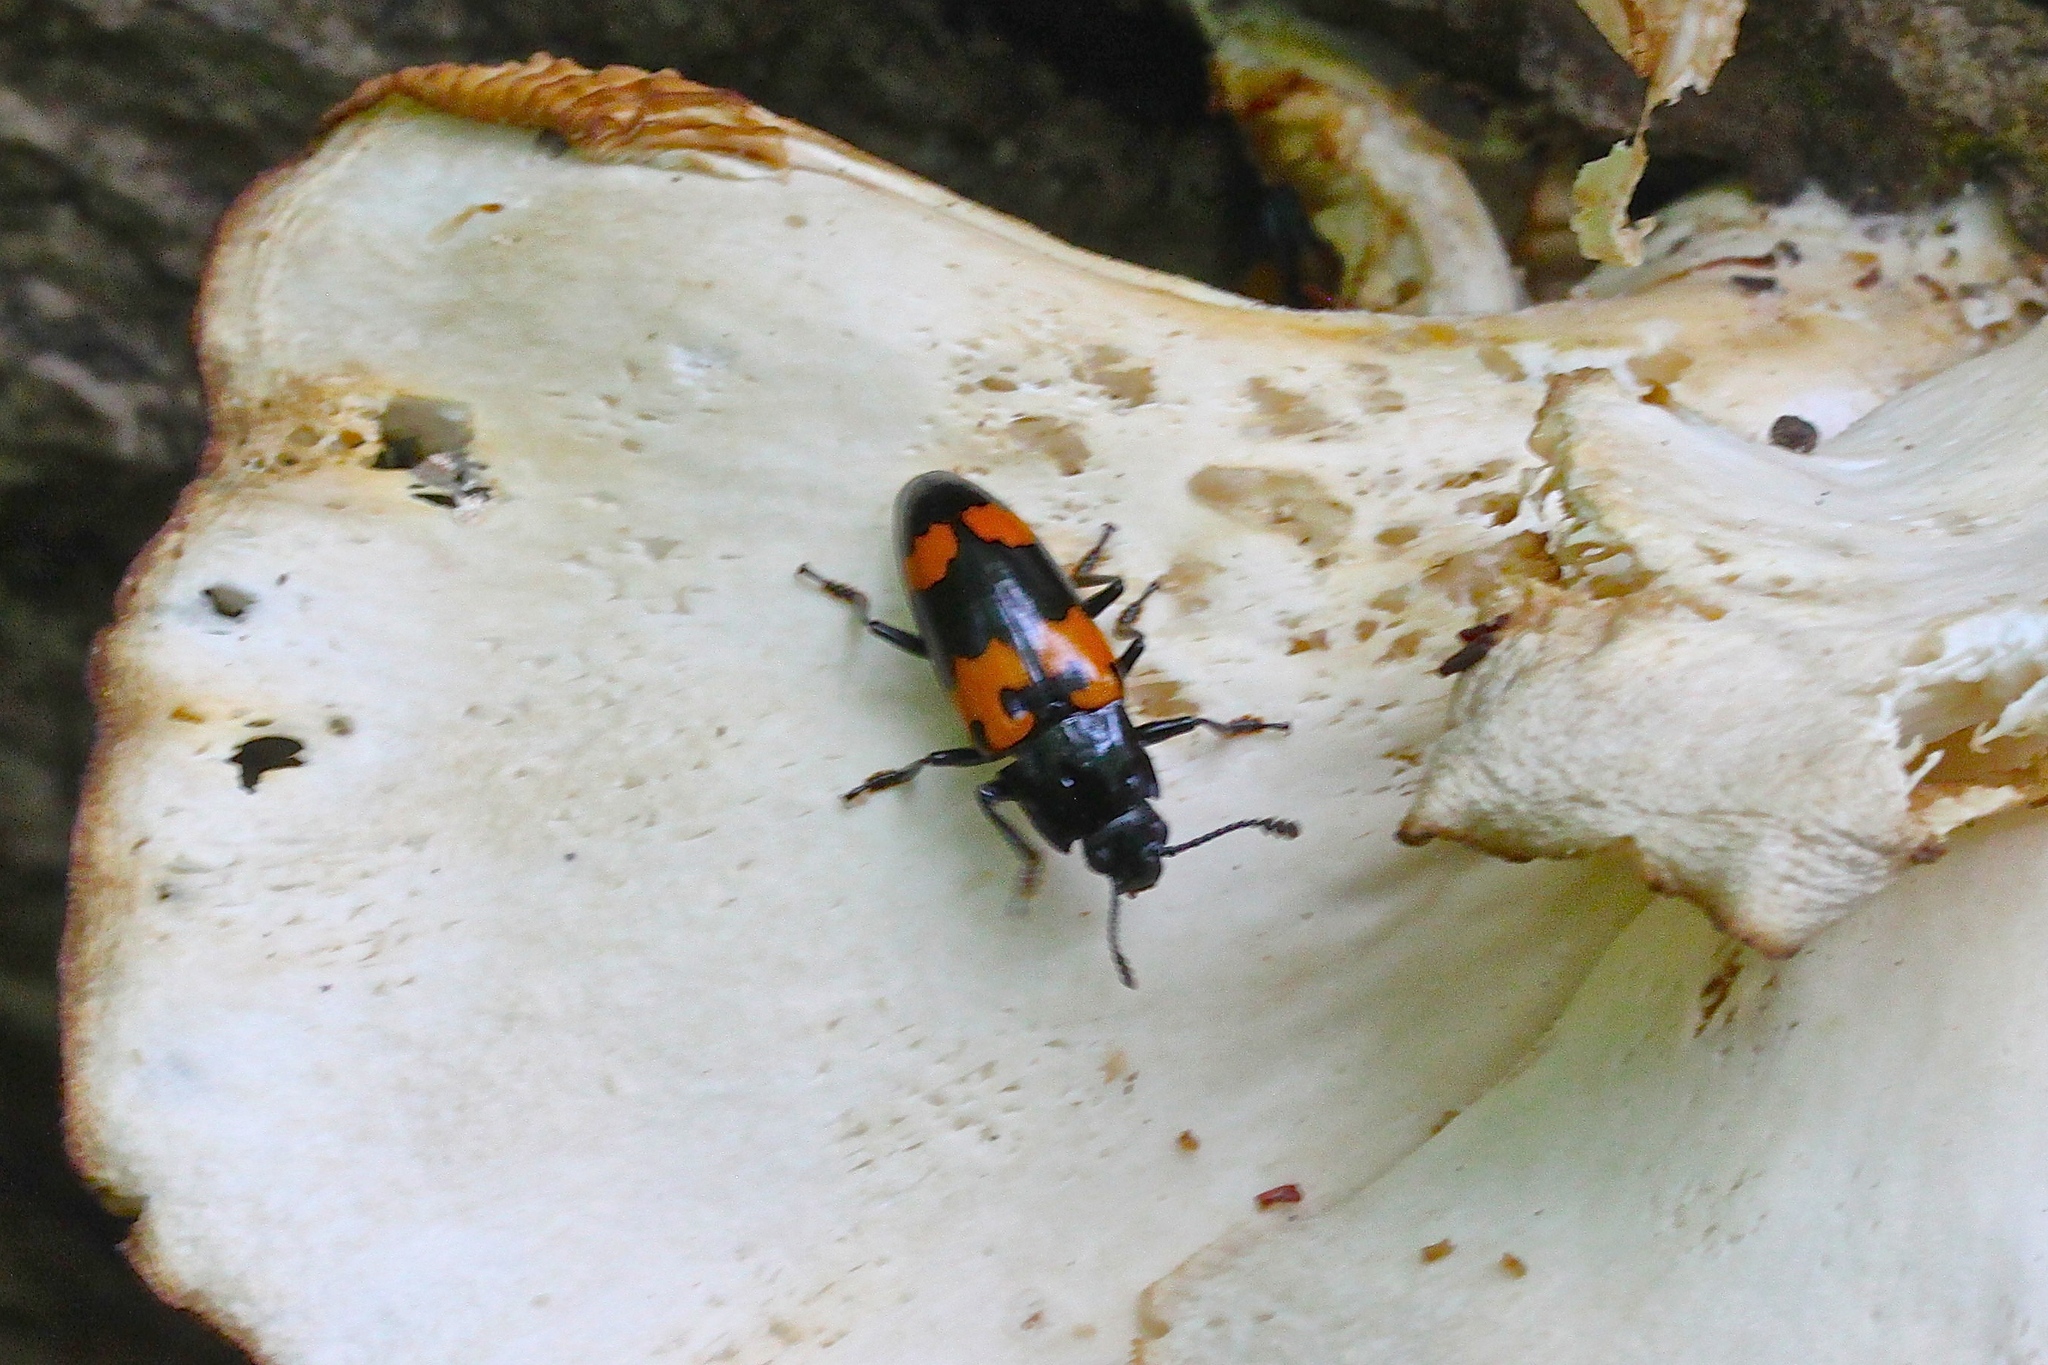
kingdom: Animalia
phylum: Arthropoda
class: Insecta
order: Coleoptera
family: Erotylidae
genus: Megalodacne
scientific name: Megalodacne heros
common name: Pleasing fungus beetle
